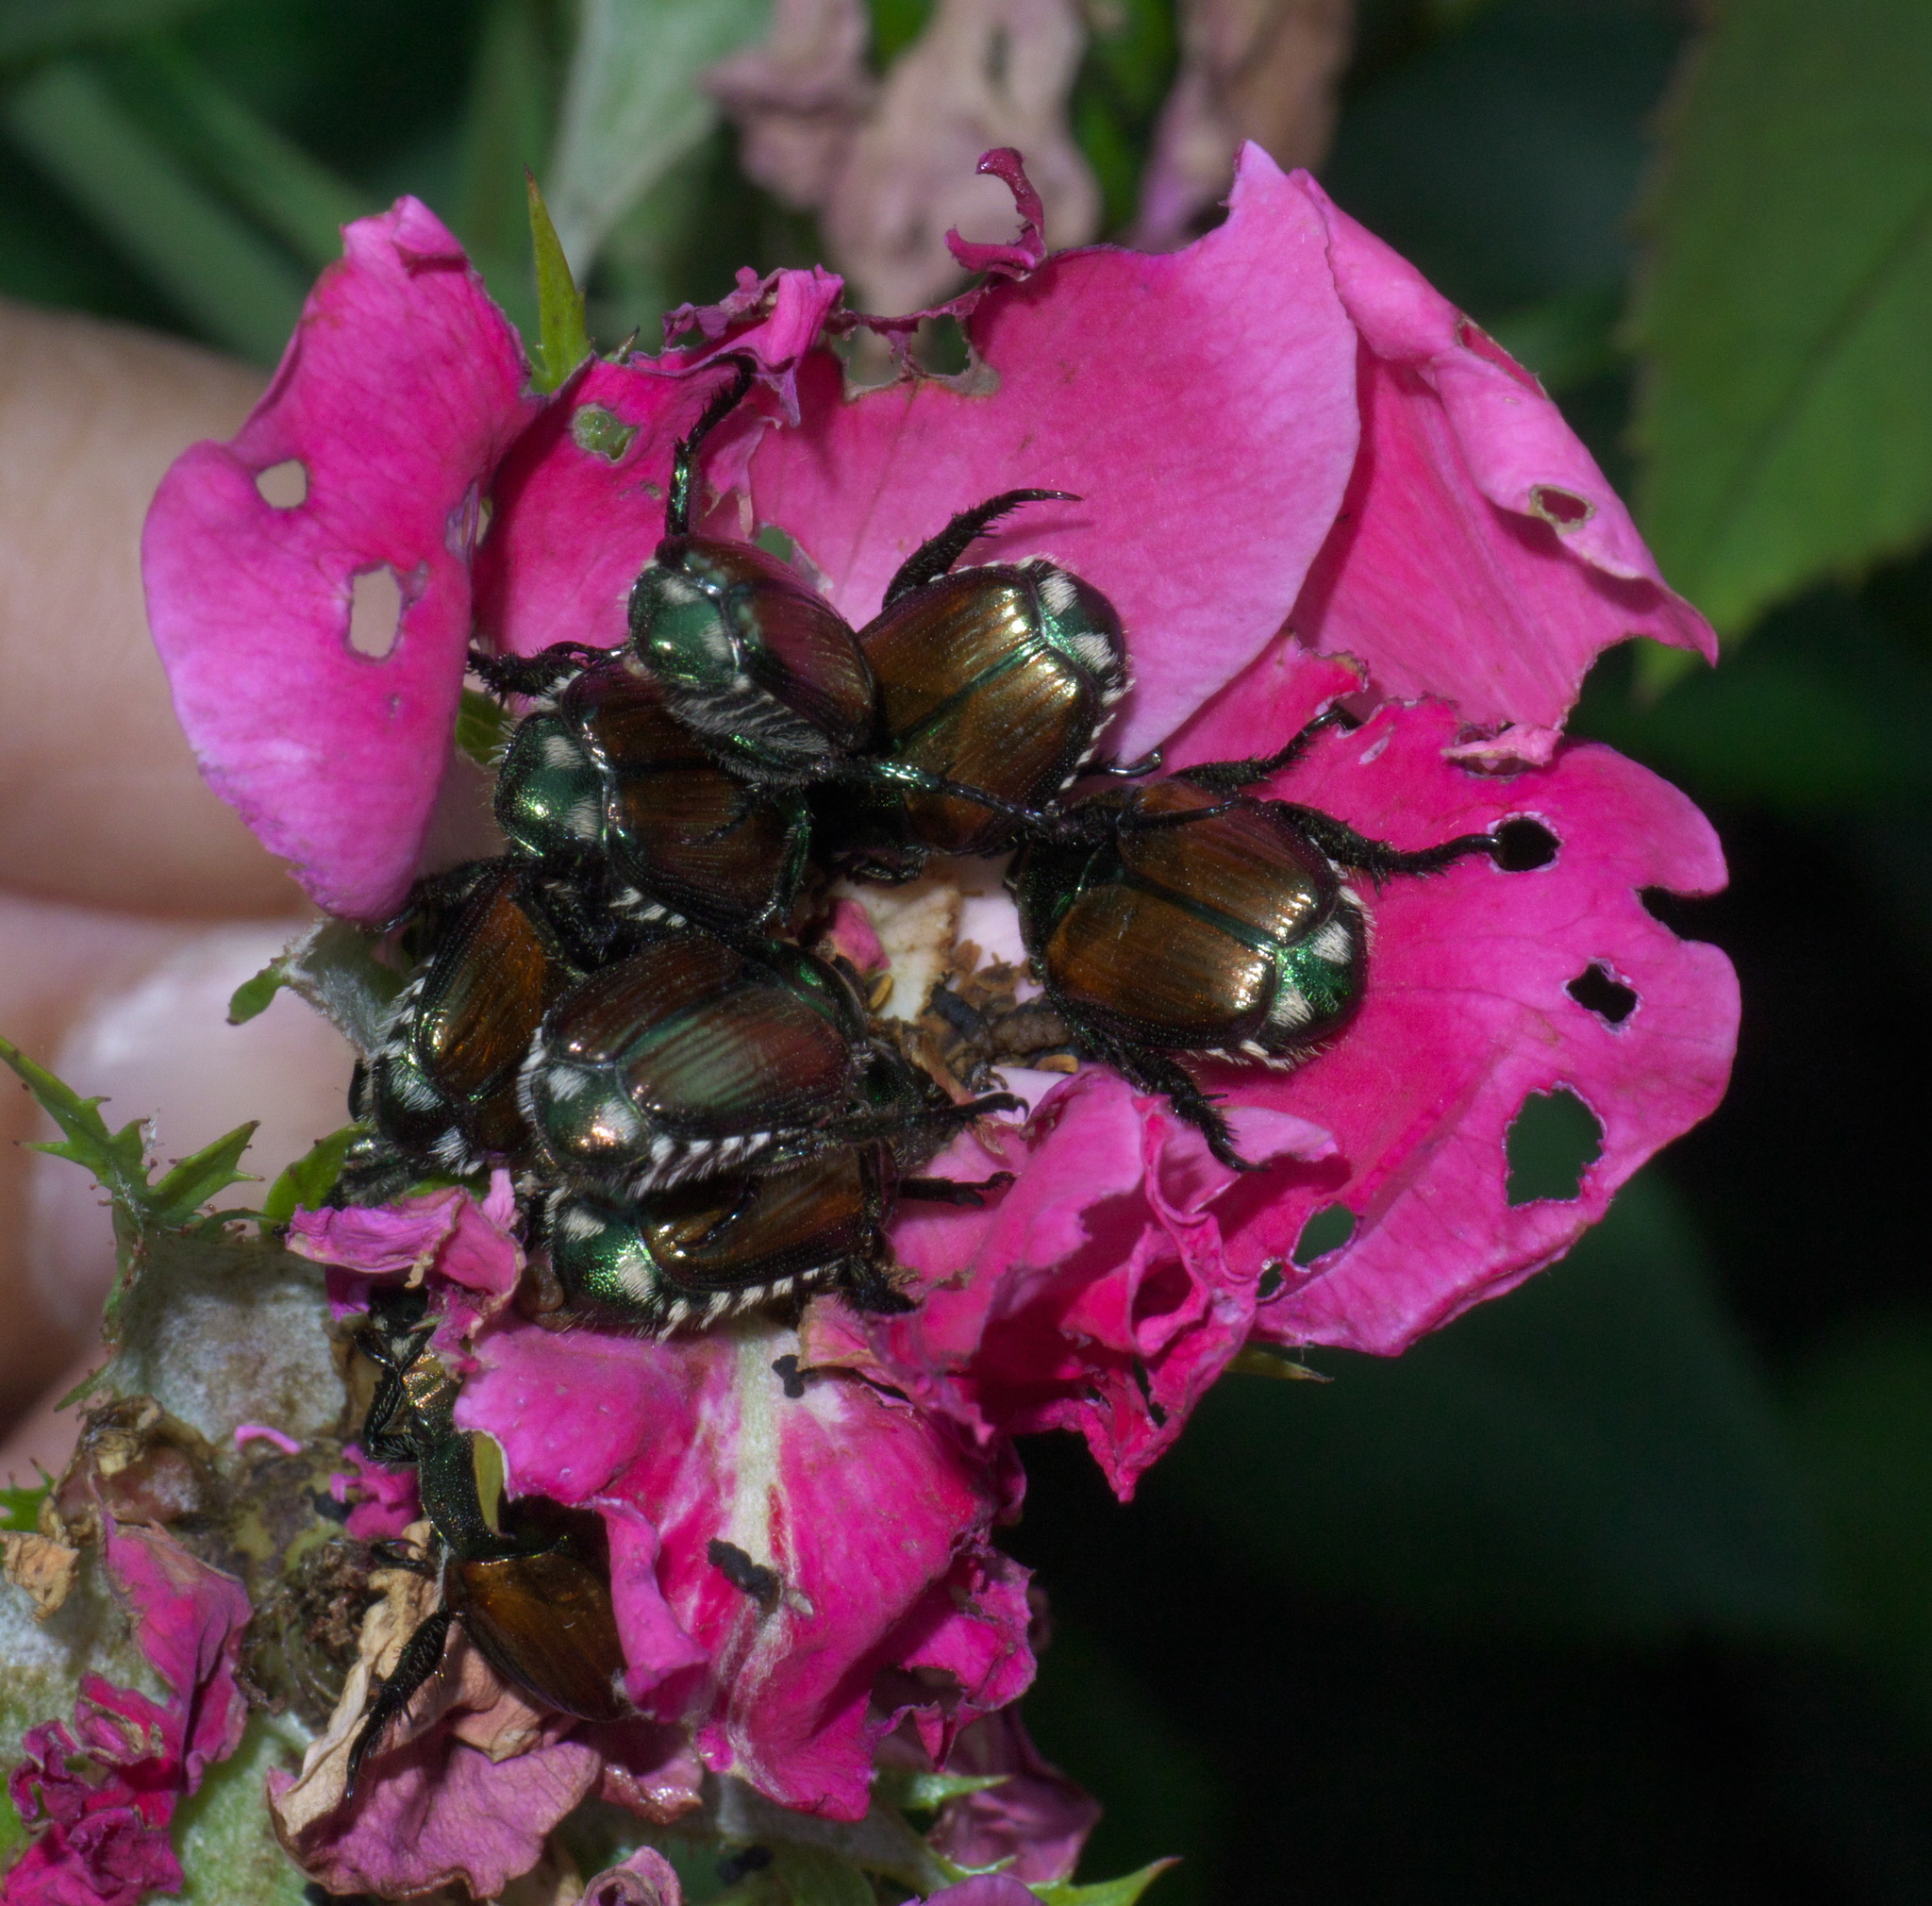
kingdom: Animalia
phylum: Arthropoda
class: Insecta
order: Coleoptera
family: Scarabaeidae
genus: Popillia
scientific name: Popillia japonica
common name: Japanese beetle
